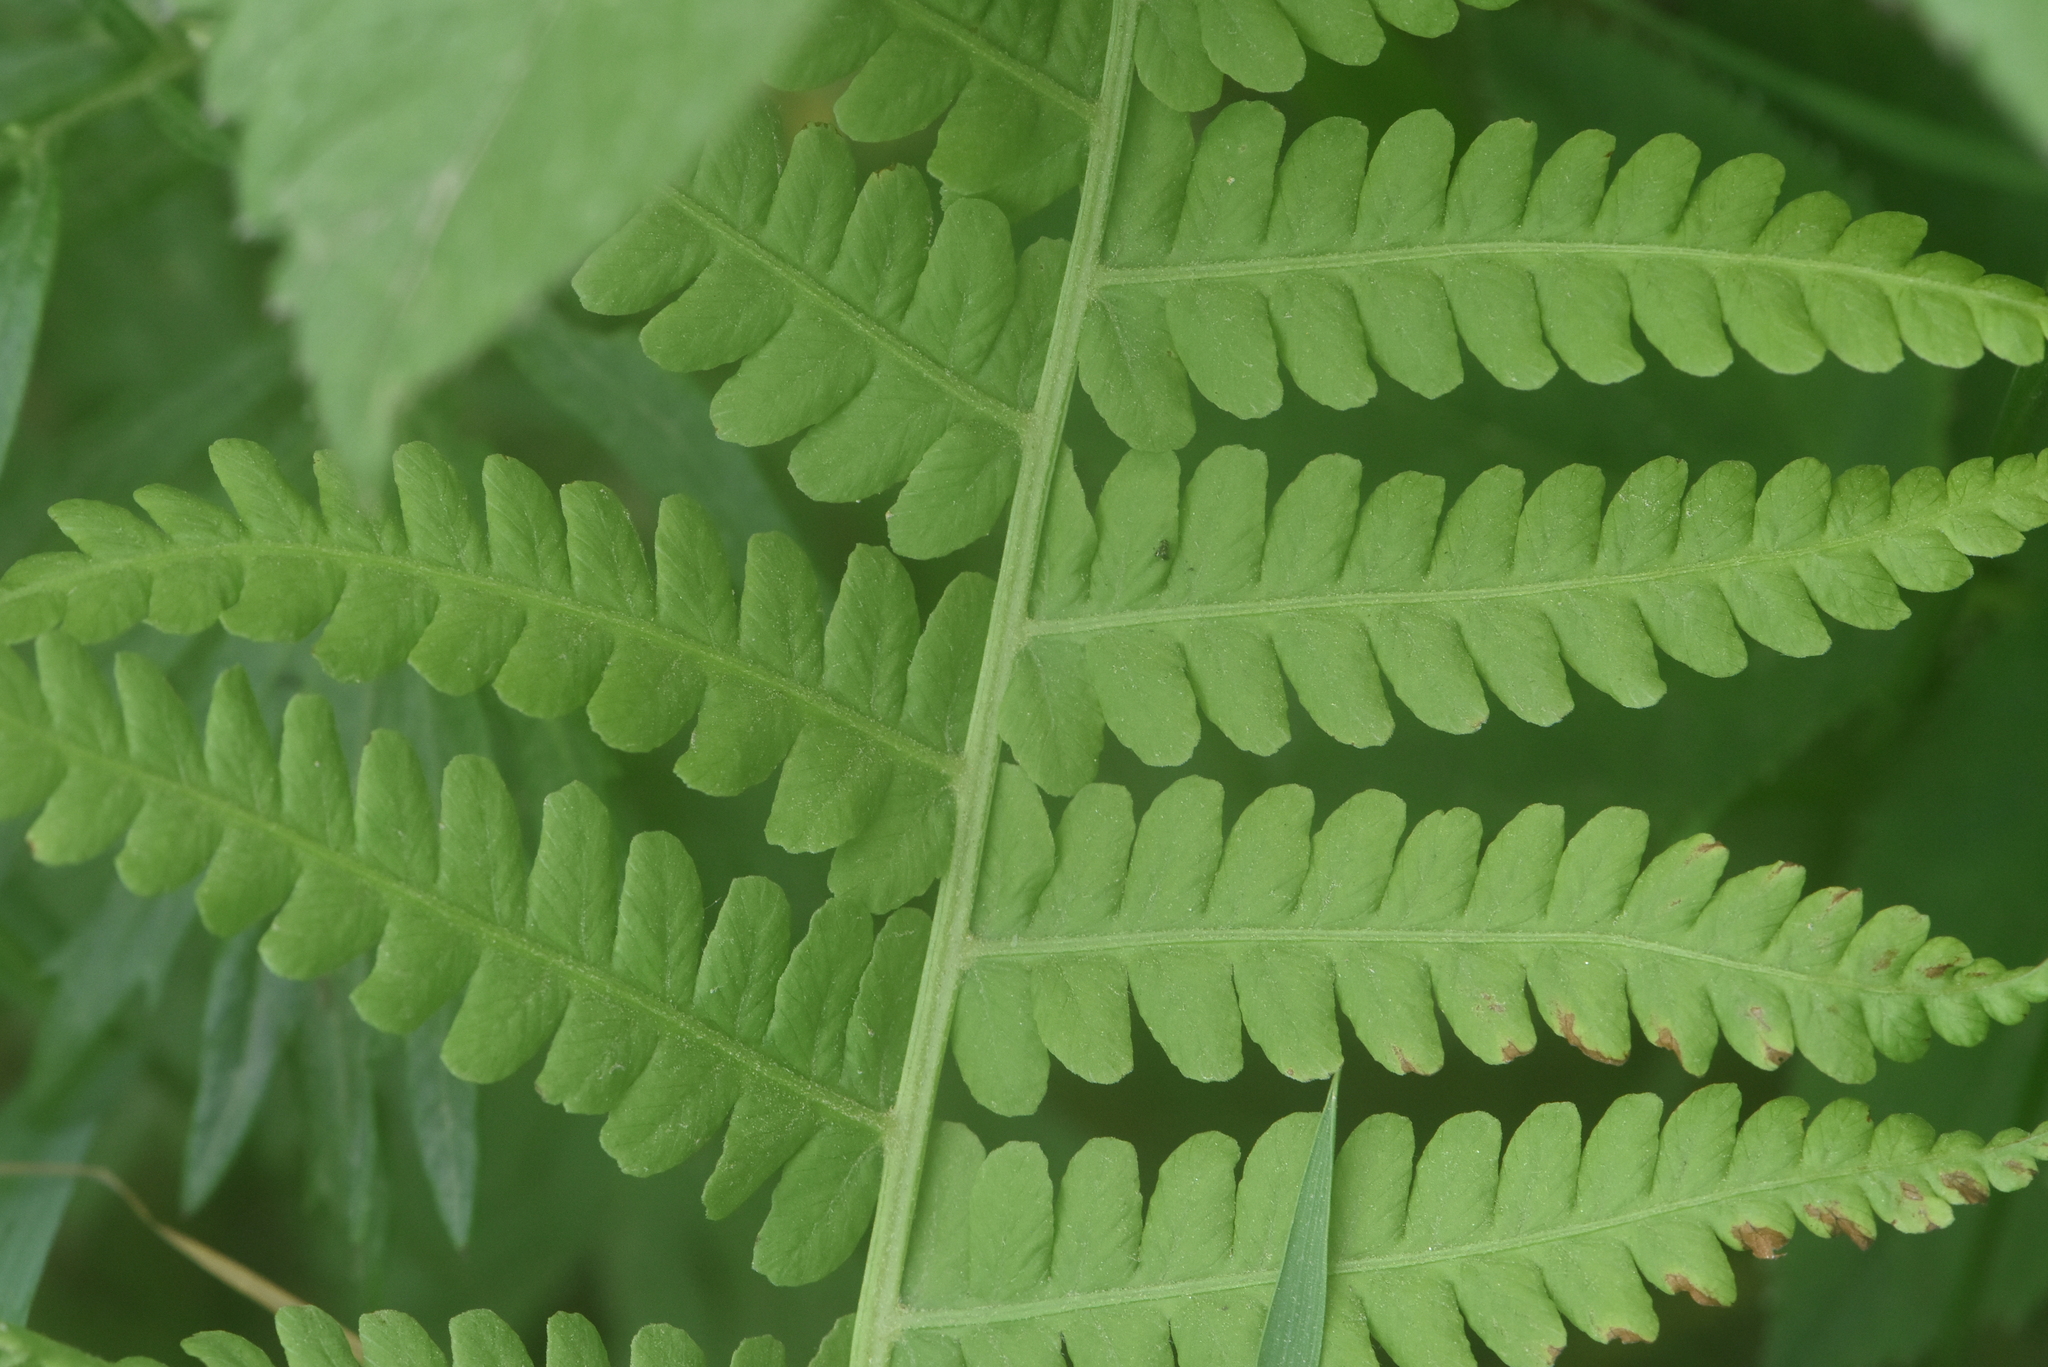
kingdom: Plantae
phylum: Tracheophyta
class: Polypodiopsida
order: Polypodiales
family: Onocleaceae
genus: Matteuccia
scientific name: Matteuccia struthiopteris
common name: Ostrich fern
